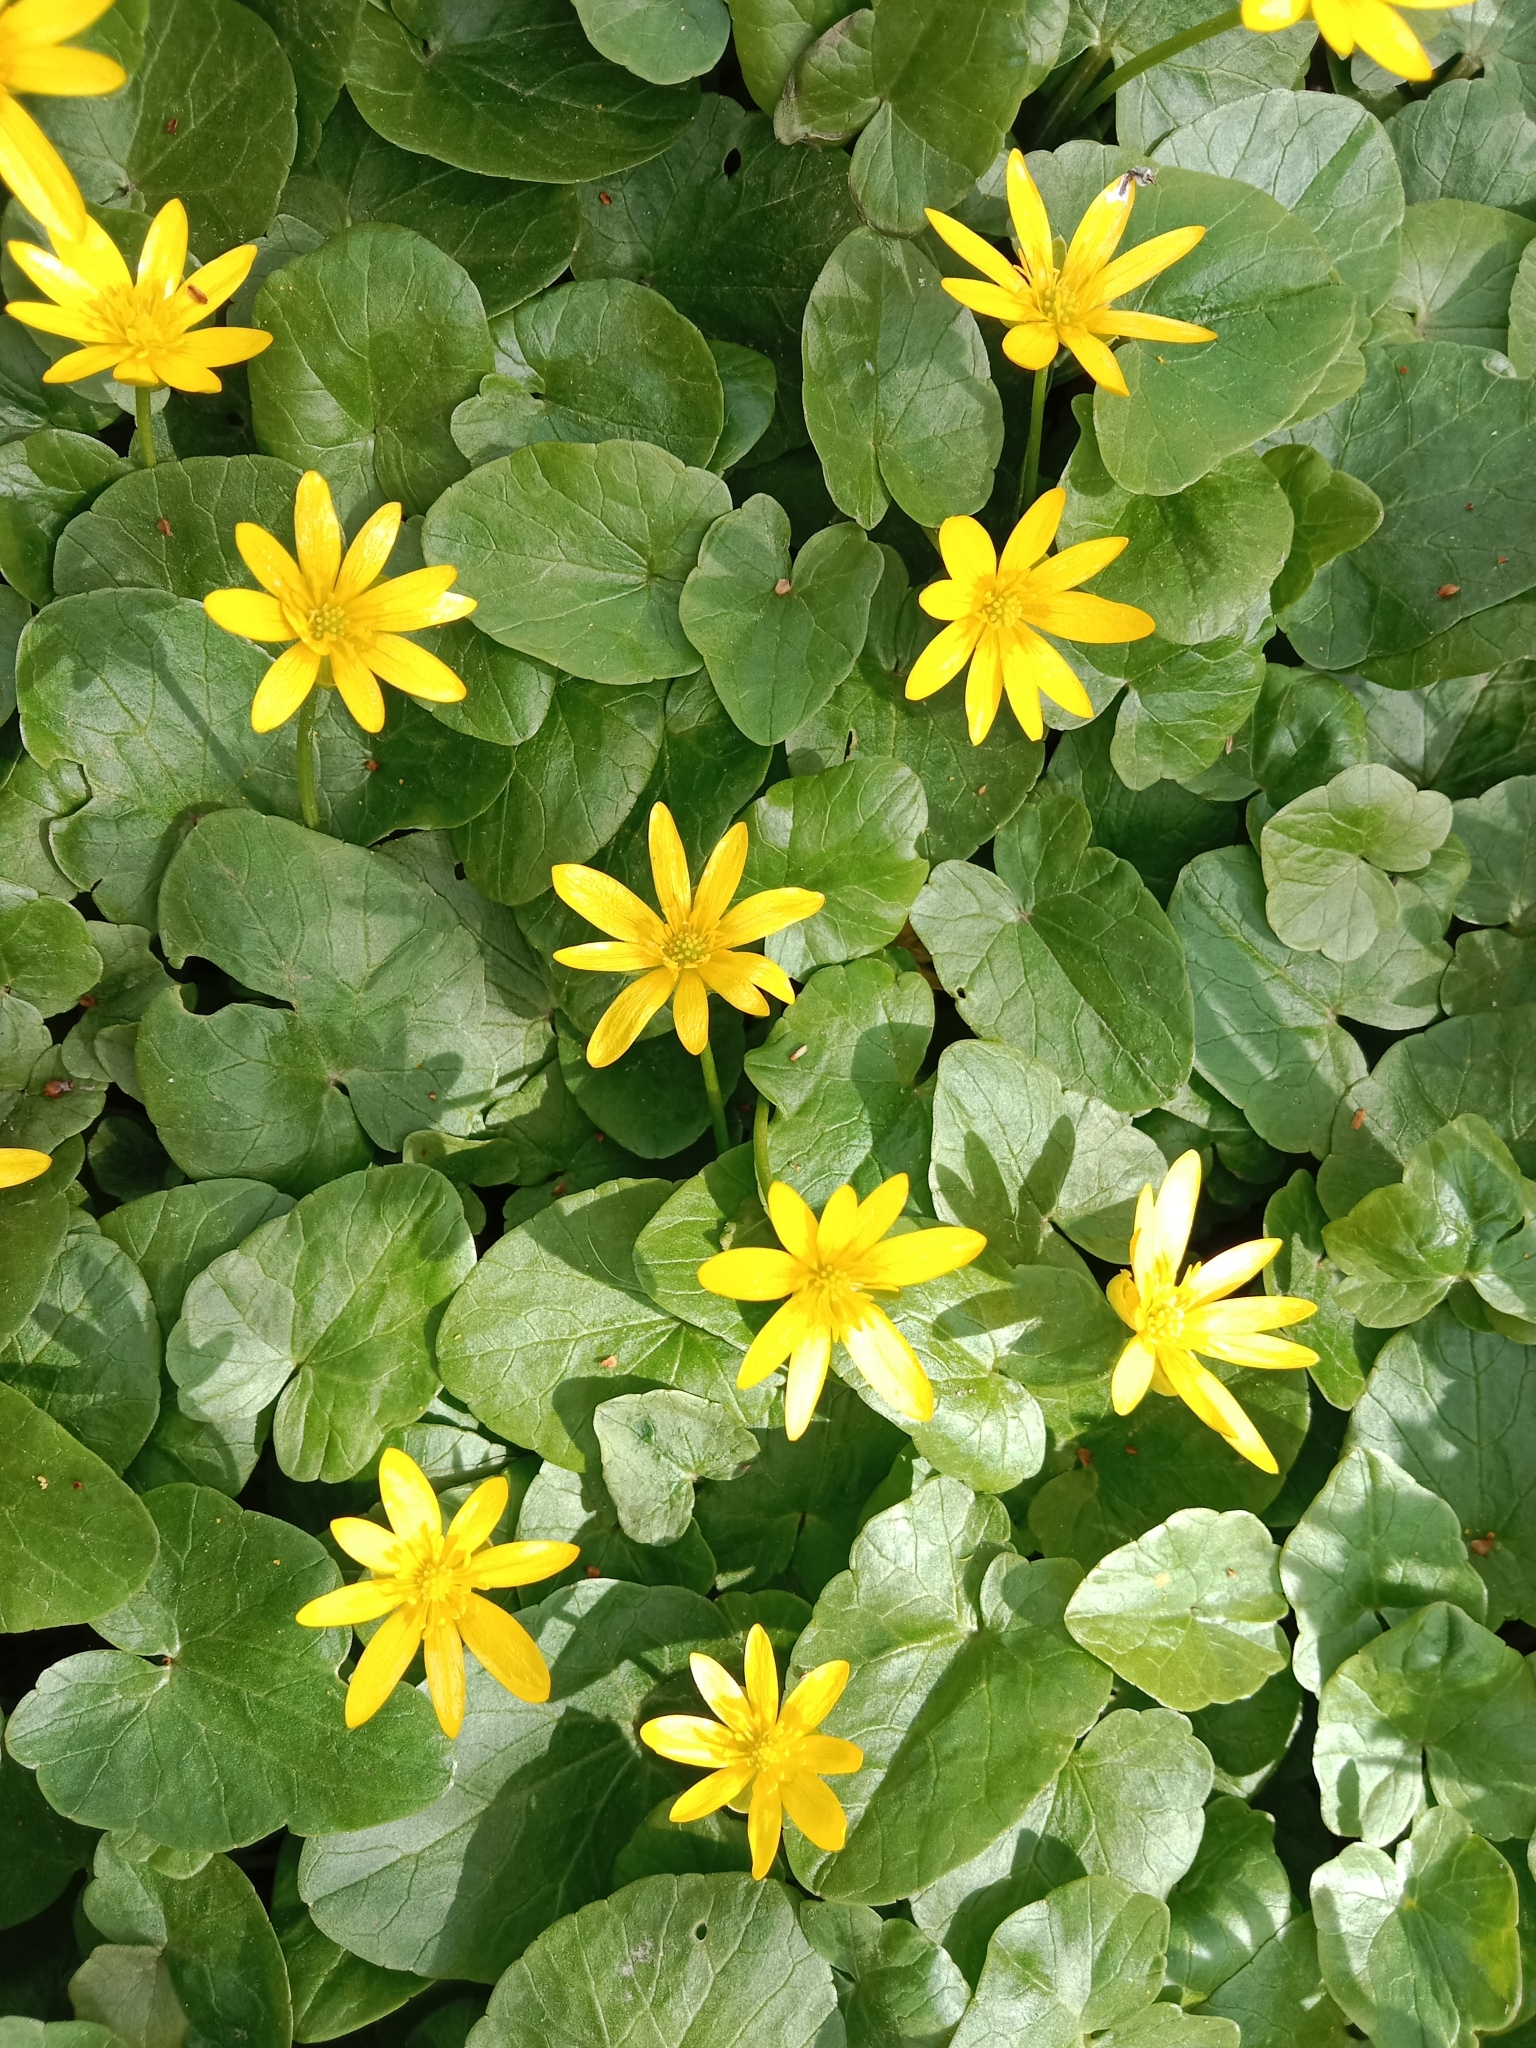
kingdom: Plantae
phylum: Tracheophyta
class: Magnoliopsida
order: Ranunculales
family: Ranunculaceae
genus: Ficaria
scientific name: Ficaria verna
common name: Lesser celandine
